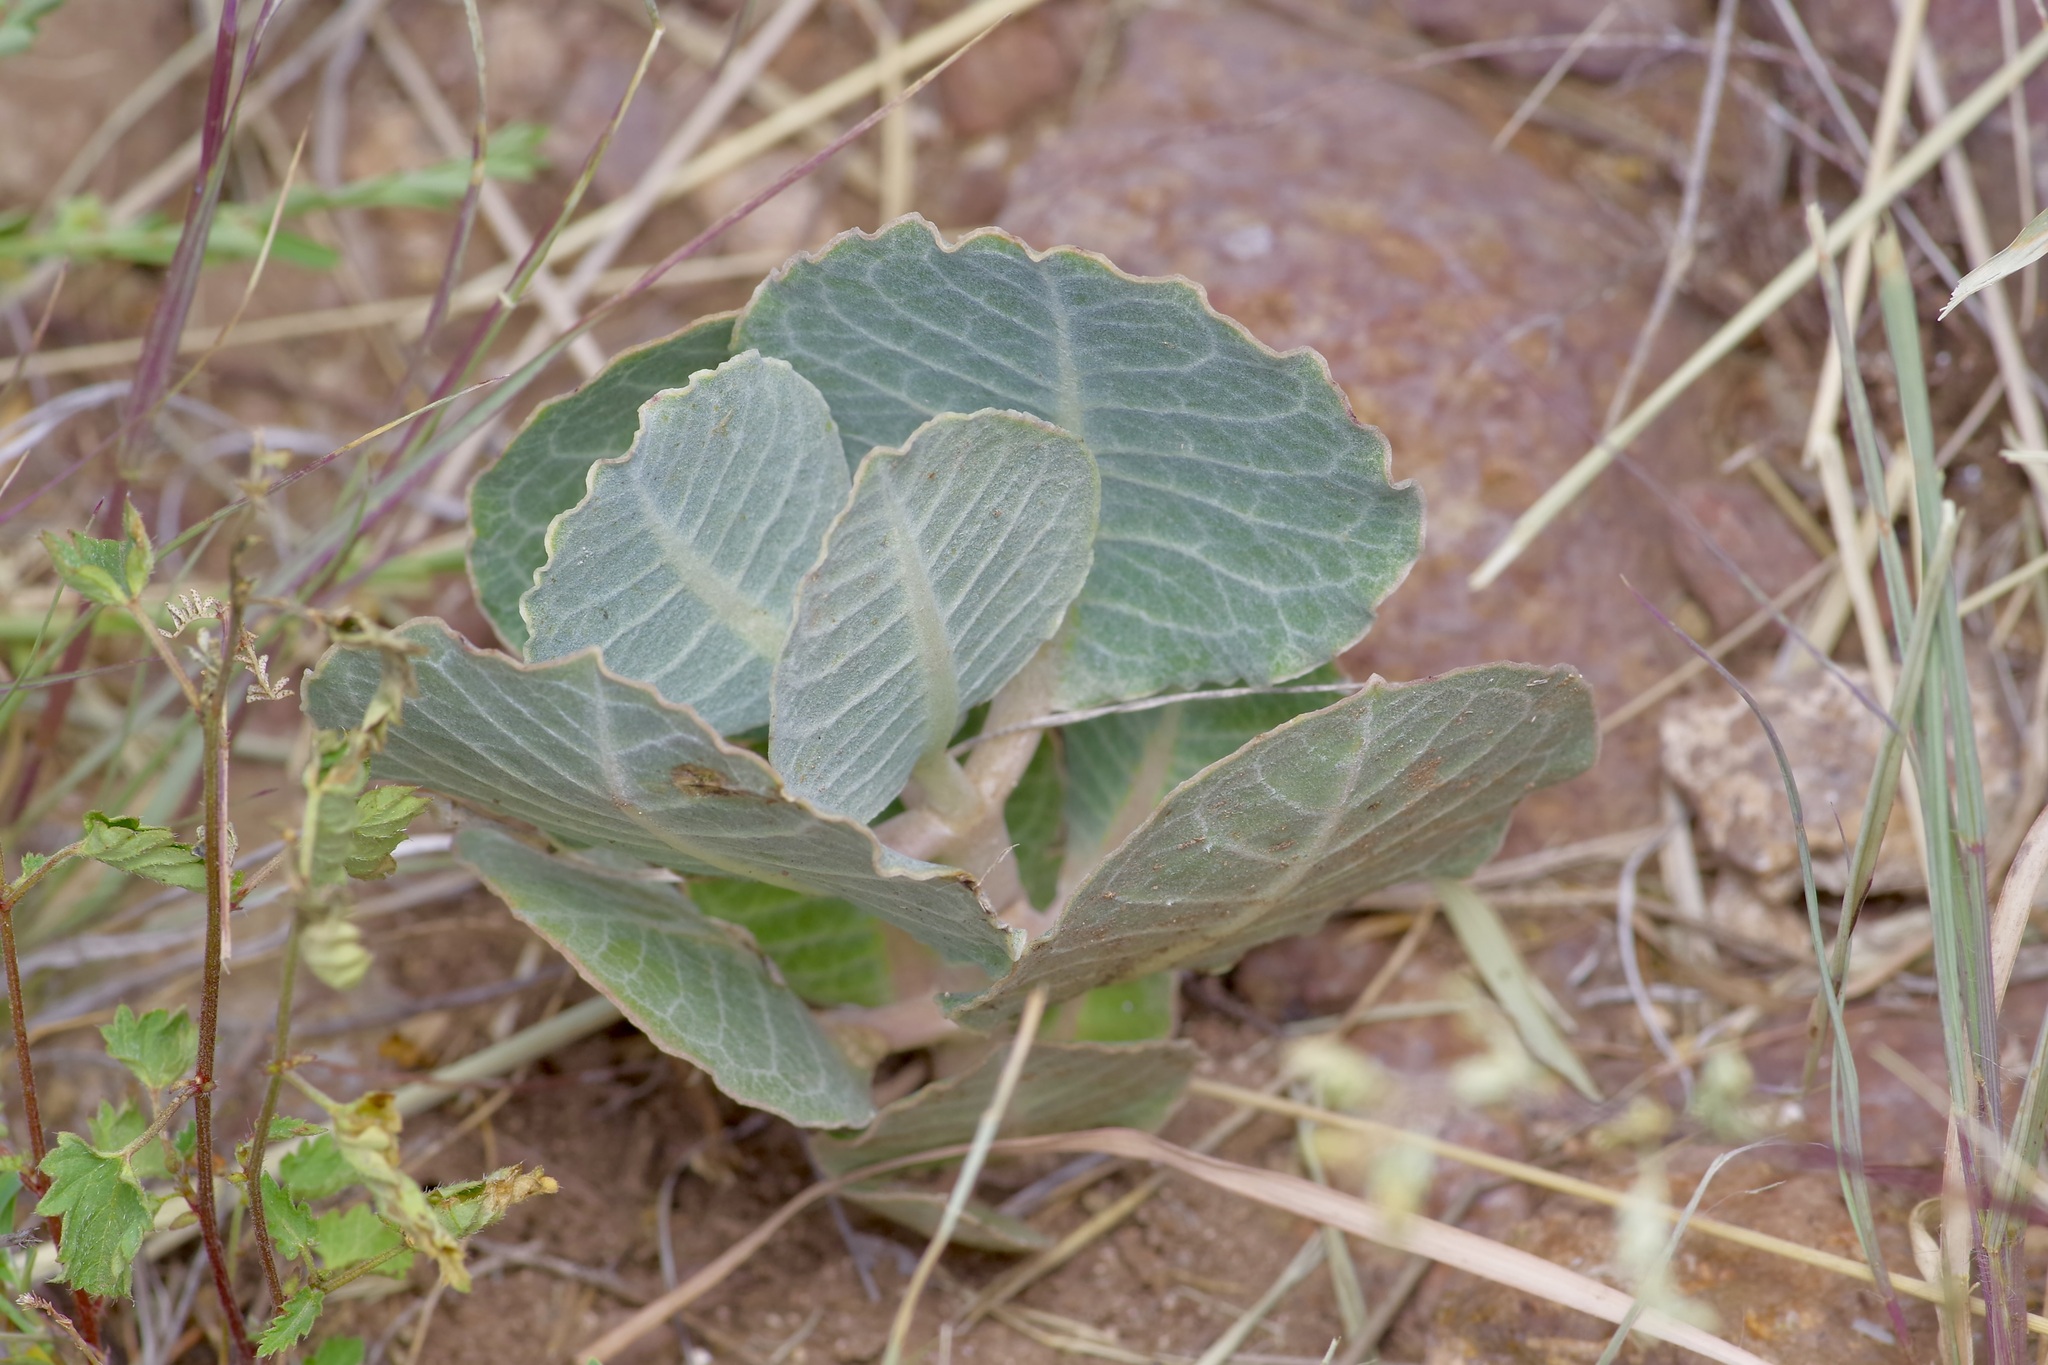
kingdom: Plantae
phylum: Tracheophyta
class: Magnoliopsida
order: Gentianales
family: Apocynaceae
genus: Asclepias
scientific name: Asclepias nummularia
